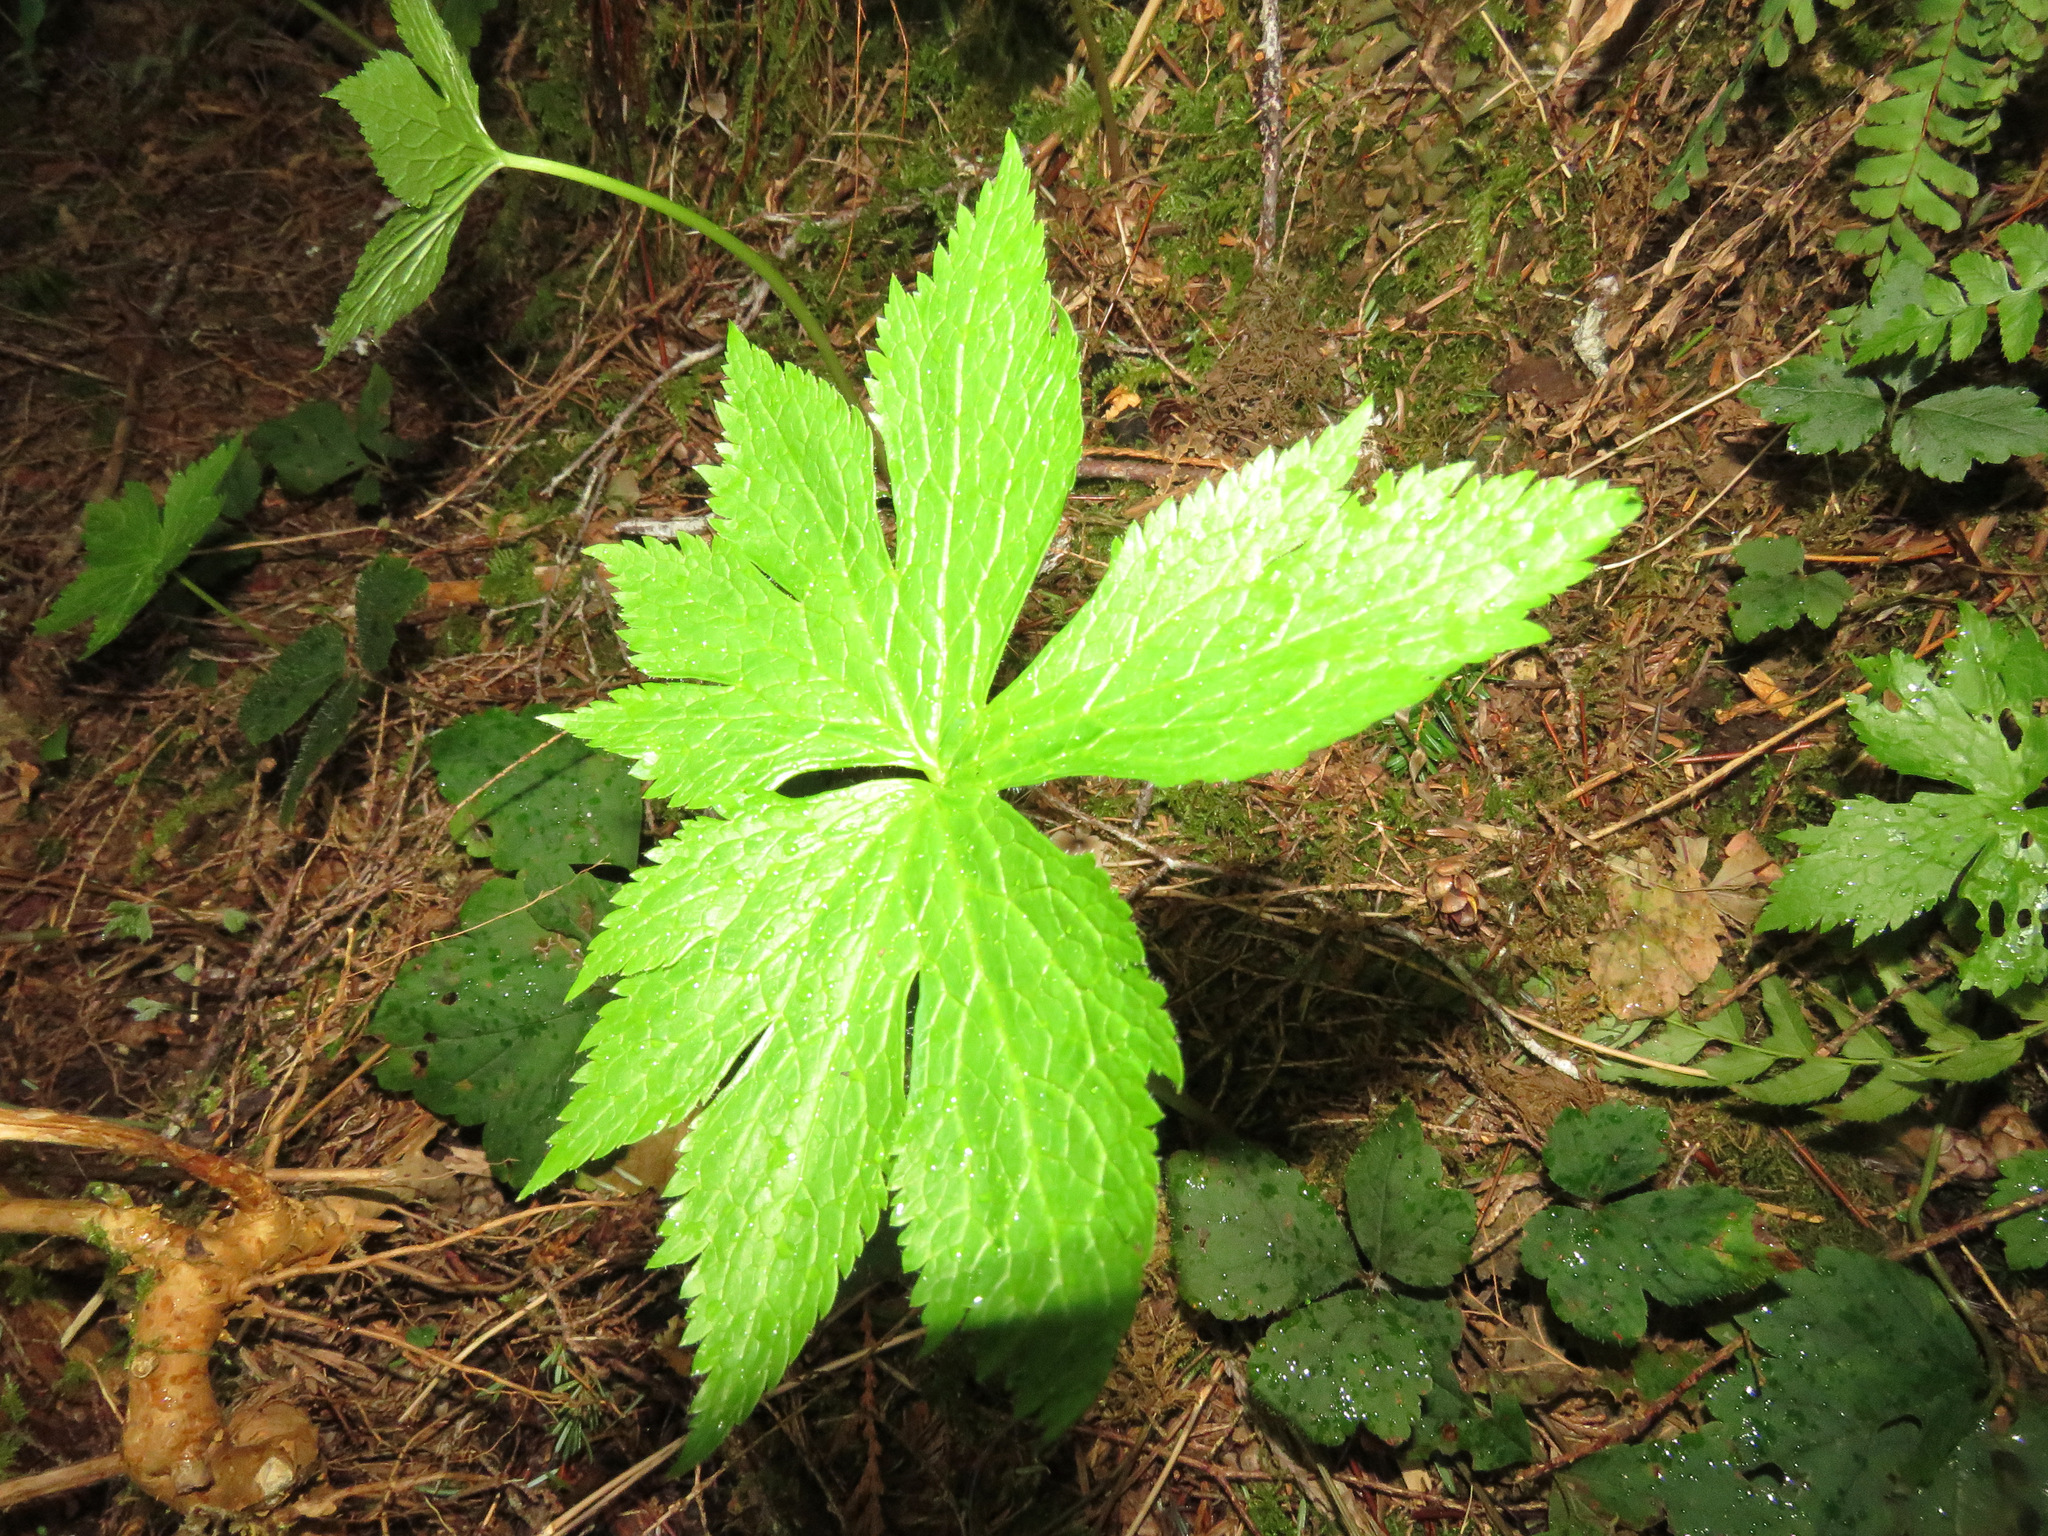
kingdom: Plantae
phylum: Tracheophyta
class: Magnoliopsida
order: Ranunculales
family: Ranunculaceae
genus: Trautvetteria
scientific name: Trautvetteria carolinensis
